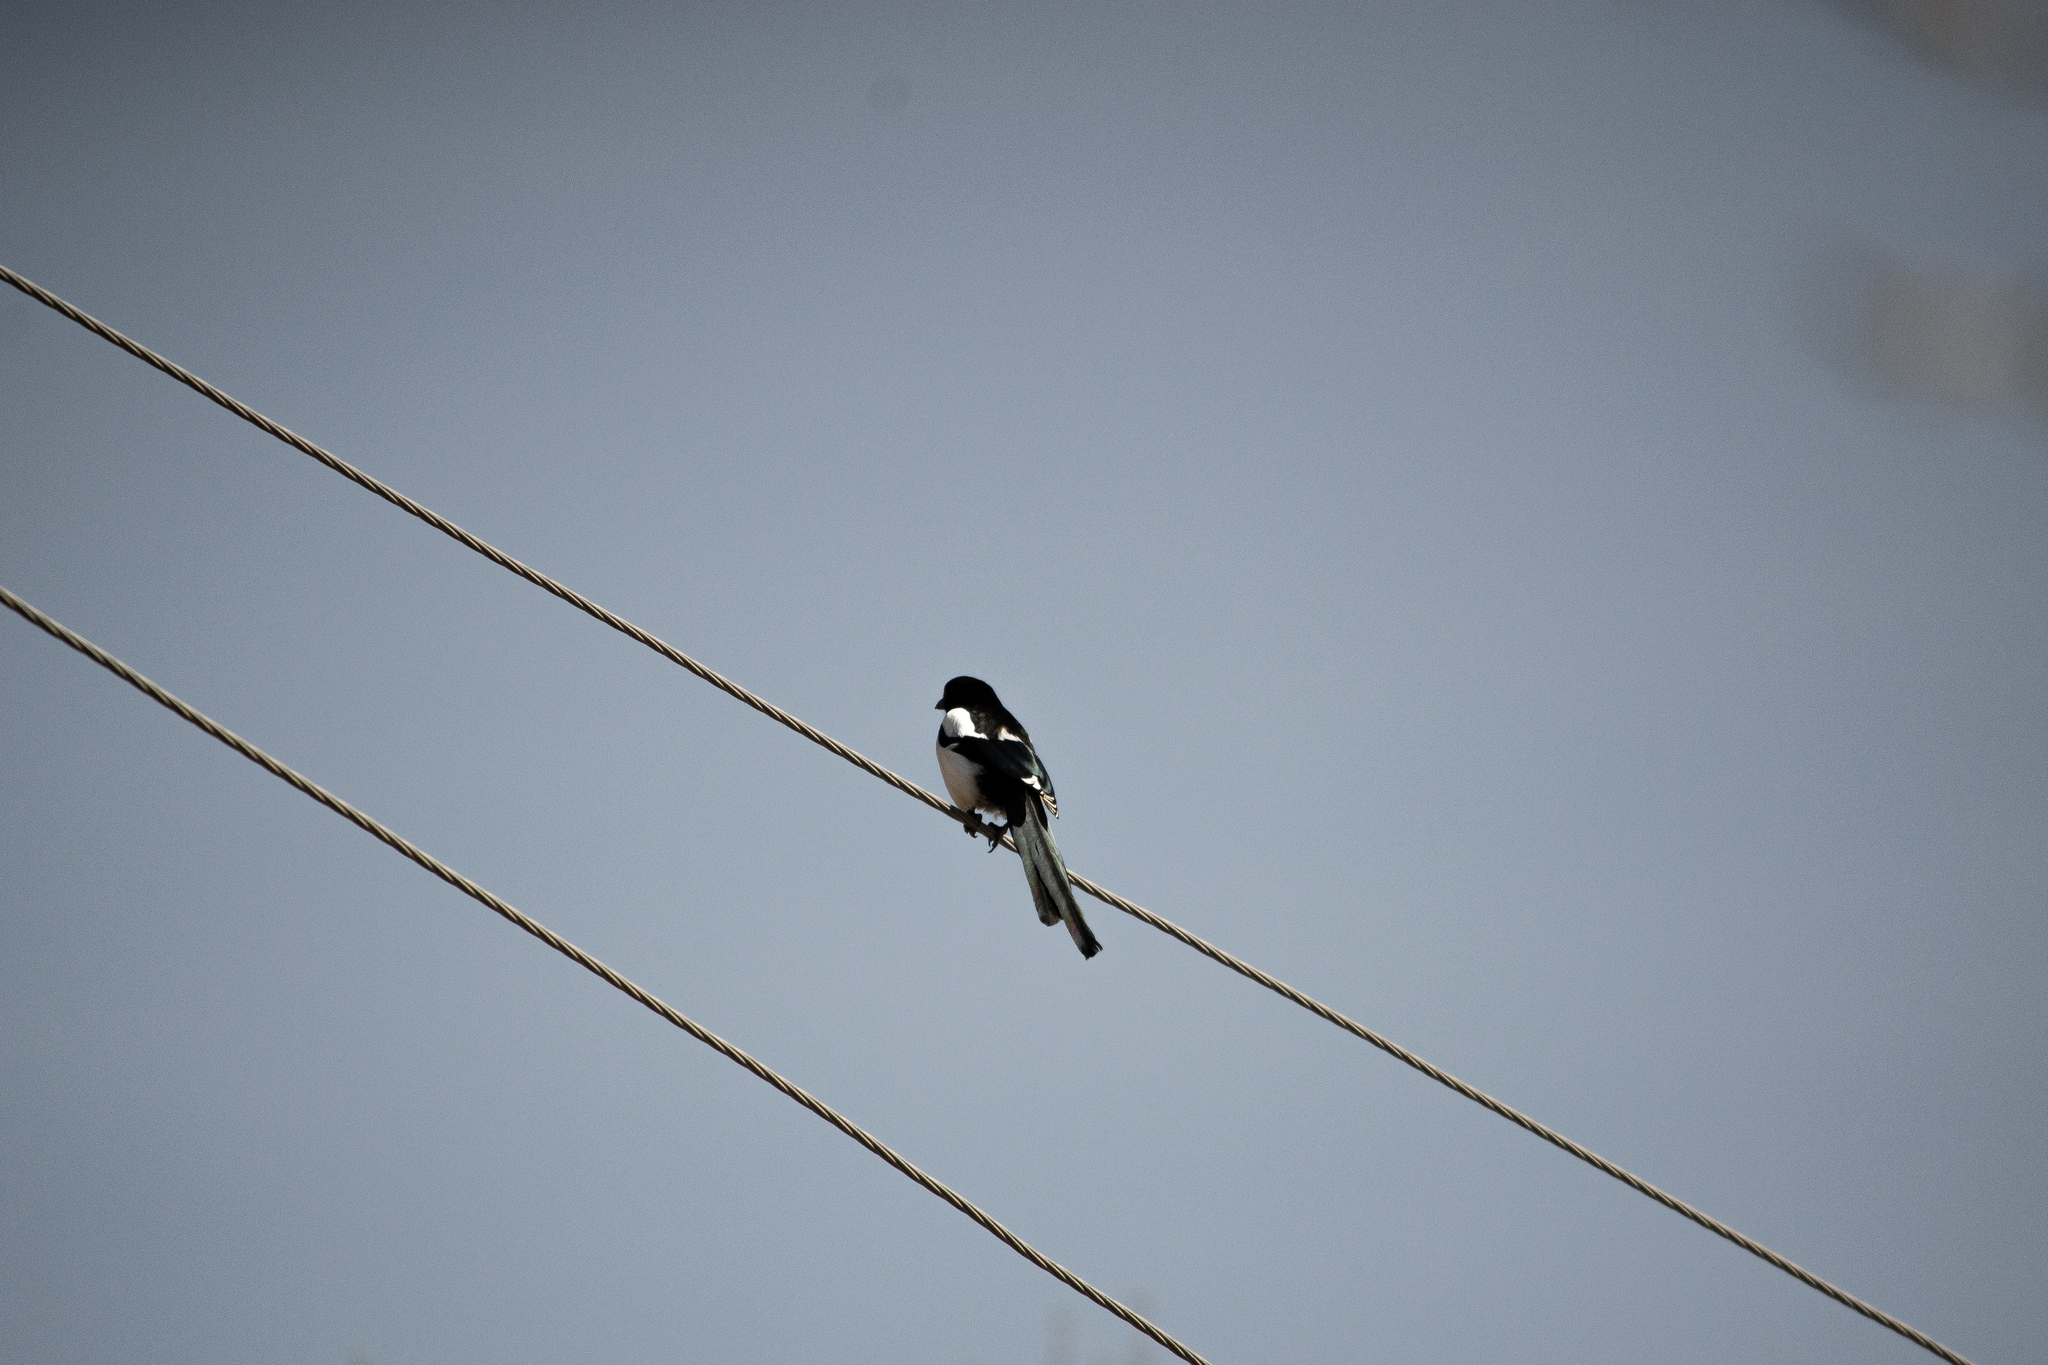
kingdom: Animalia
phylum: Chordata
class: Aves
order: Passeriformes
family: Corvidae
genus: Pica
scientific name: Pica pica
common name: Eurasian magpie
